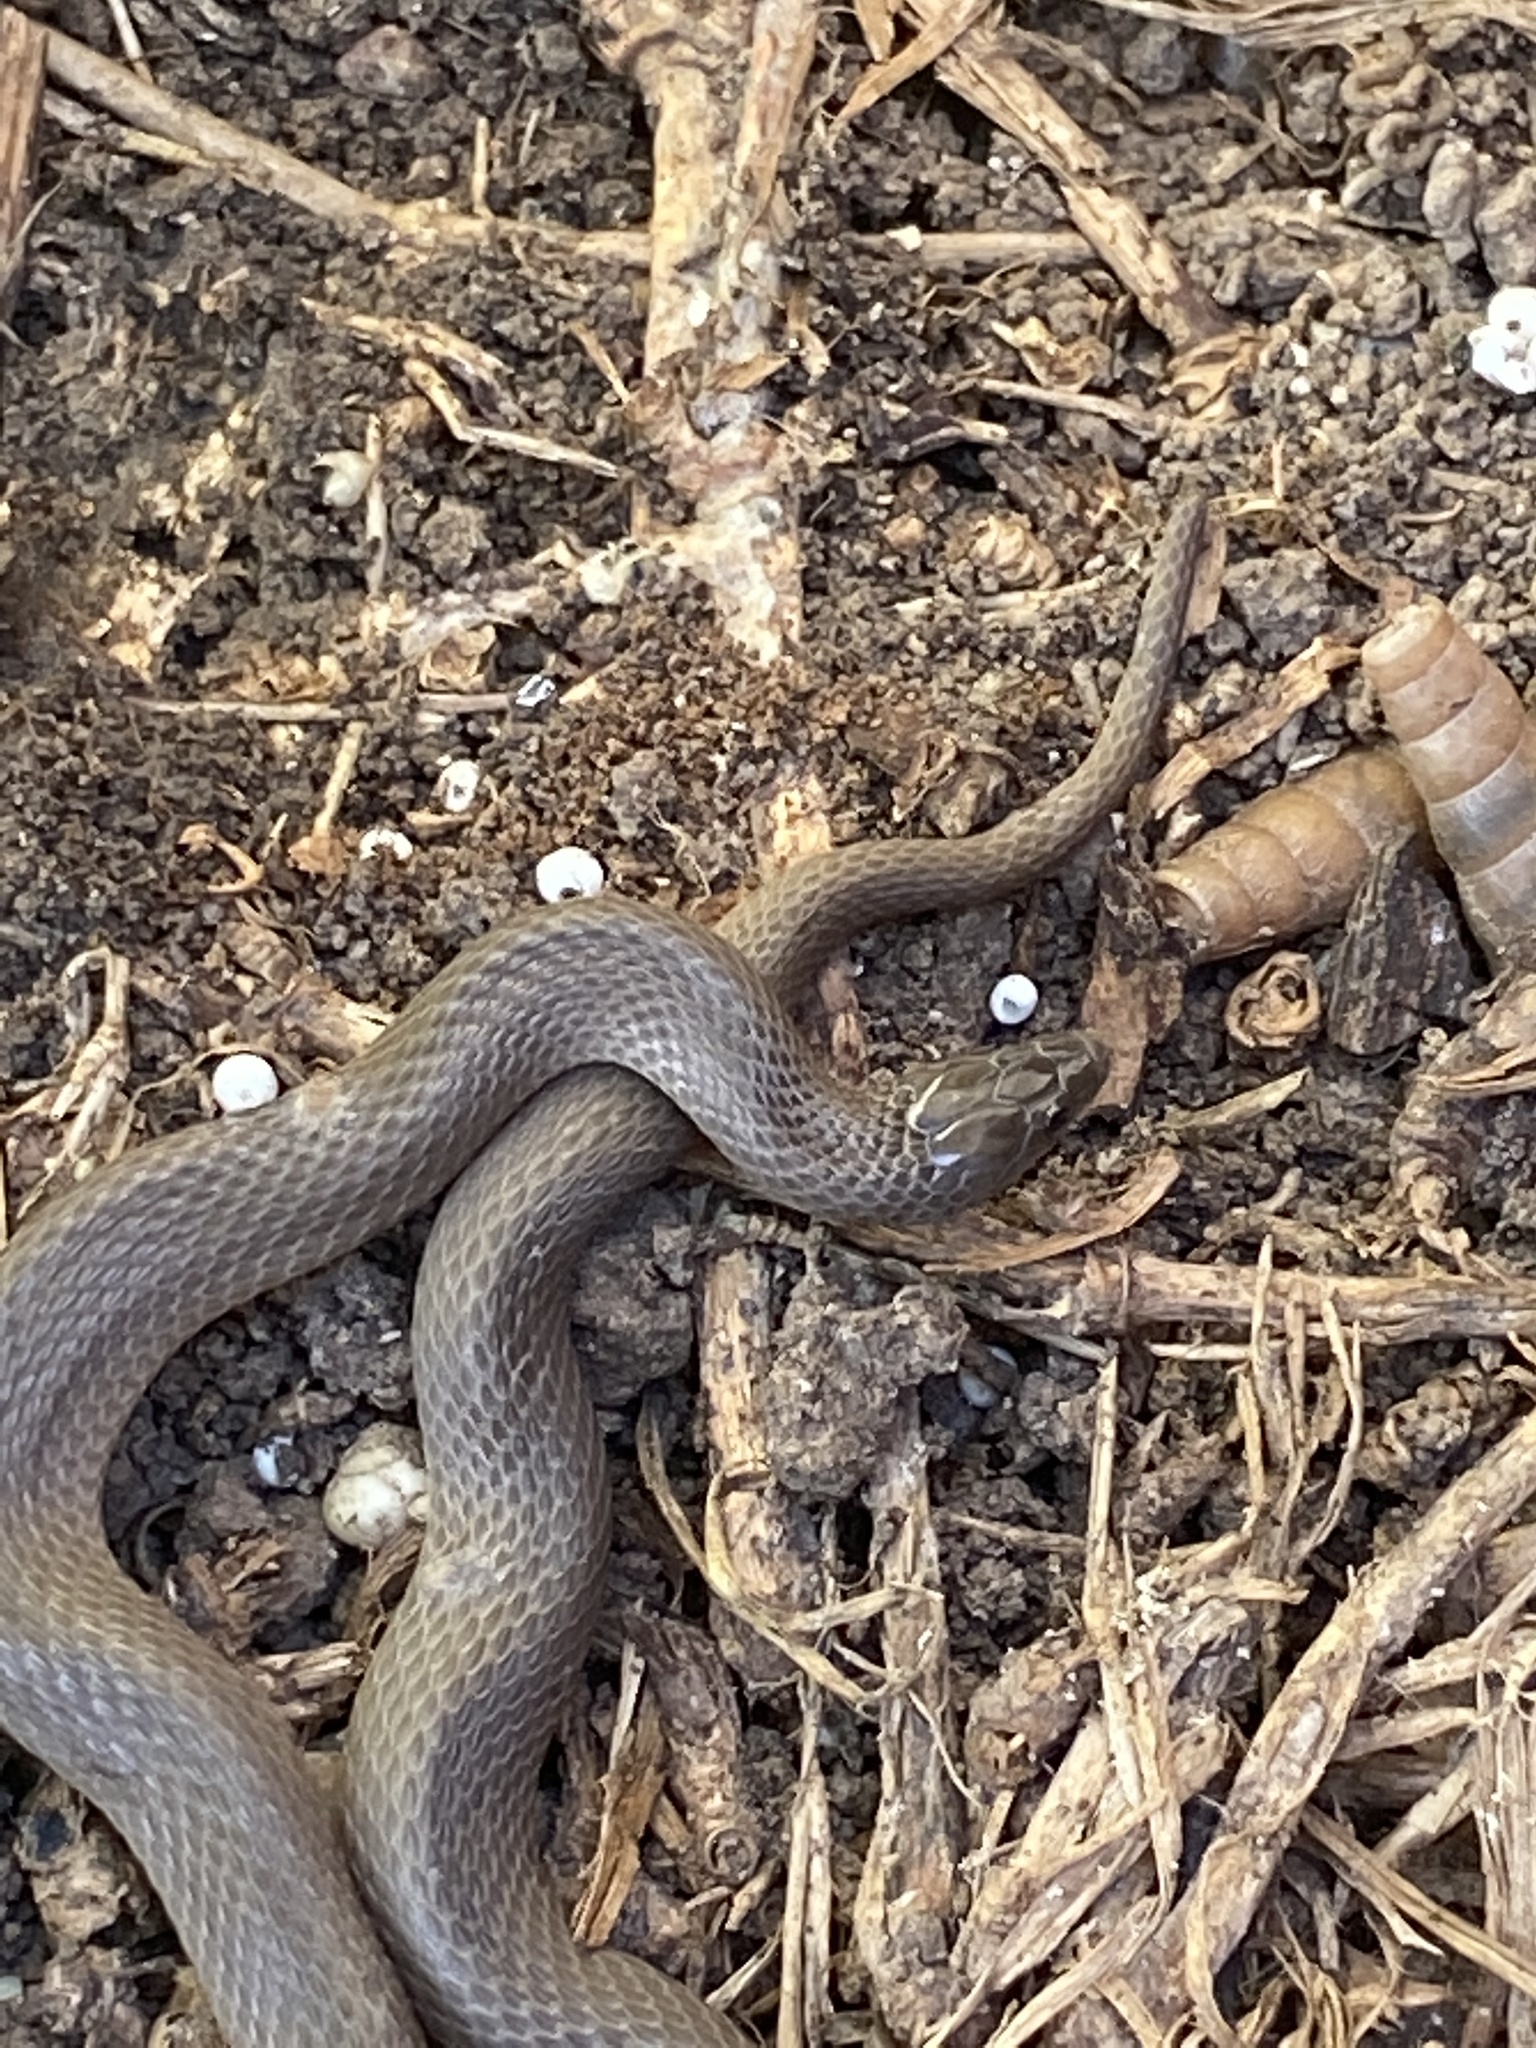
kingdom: Animalia
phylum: Chordata
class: Squamata
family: Colubridae
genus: Haldea
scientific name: Haldea striatula
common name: Rough earth snake
